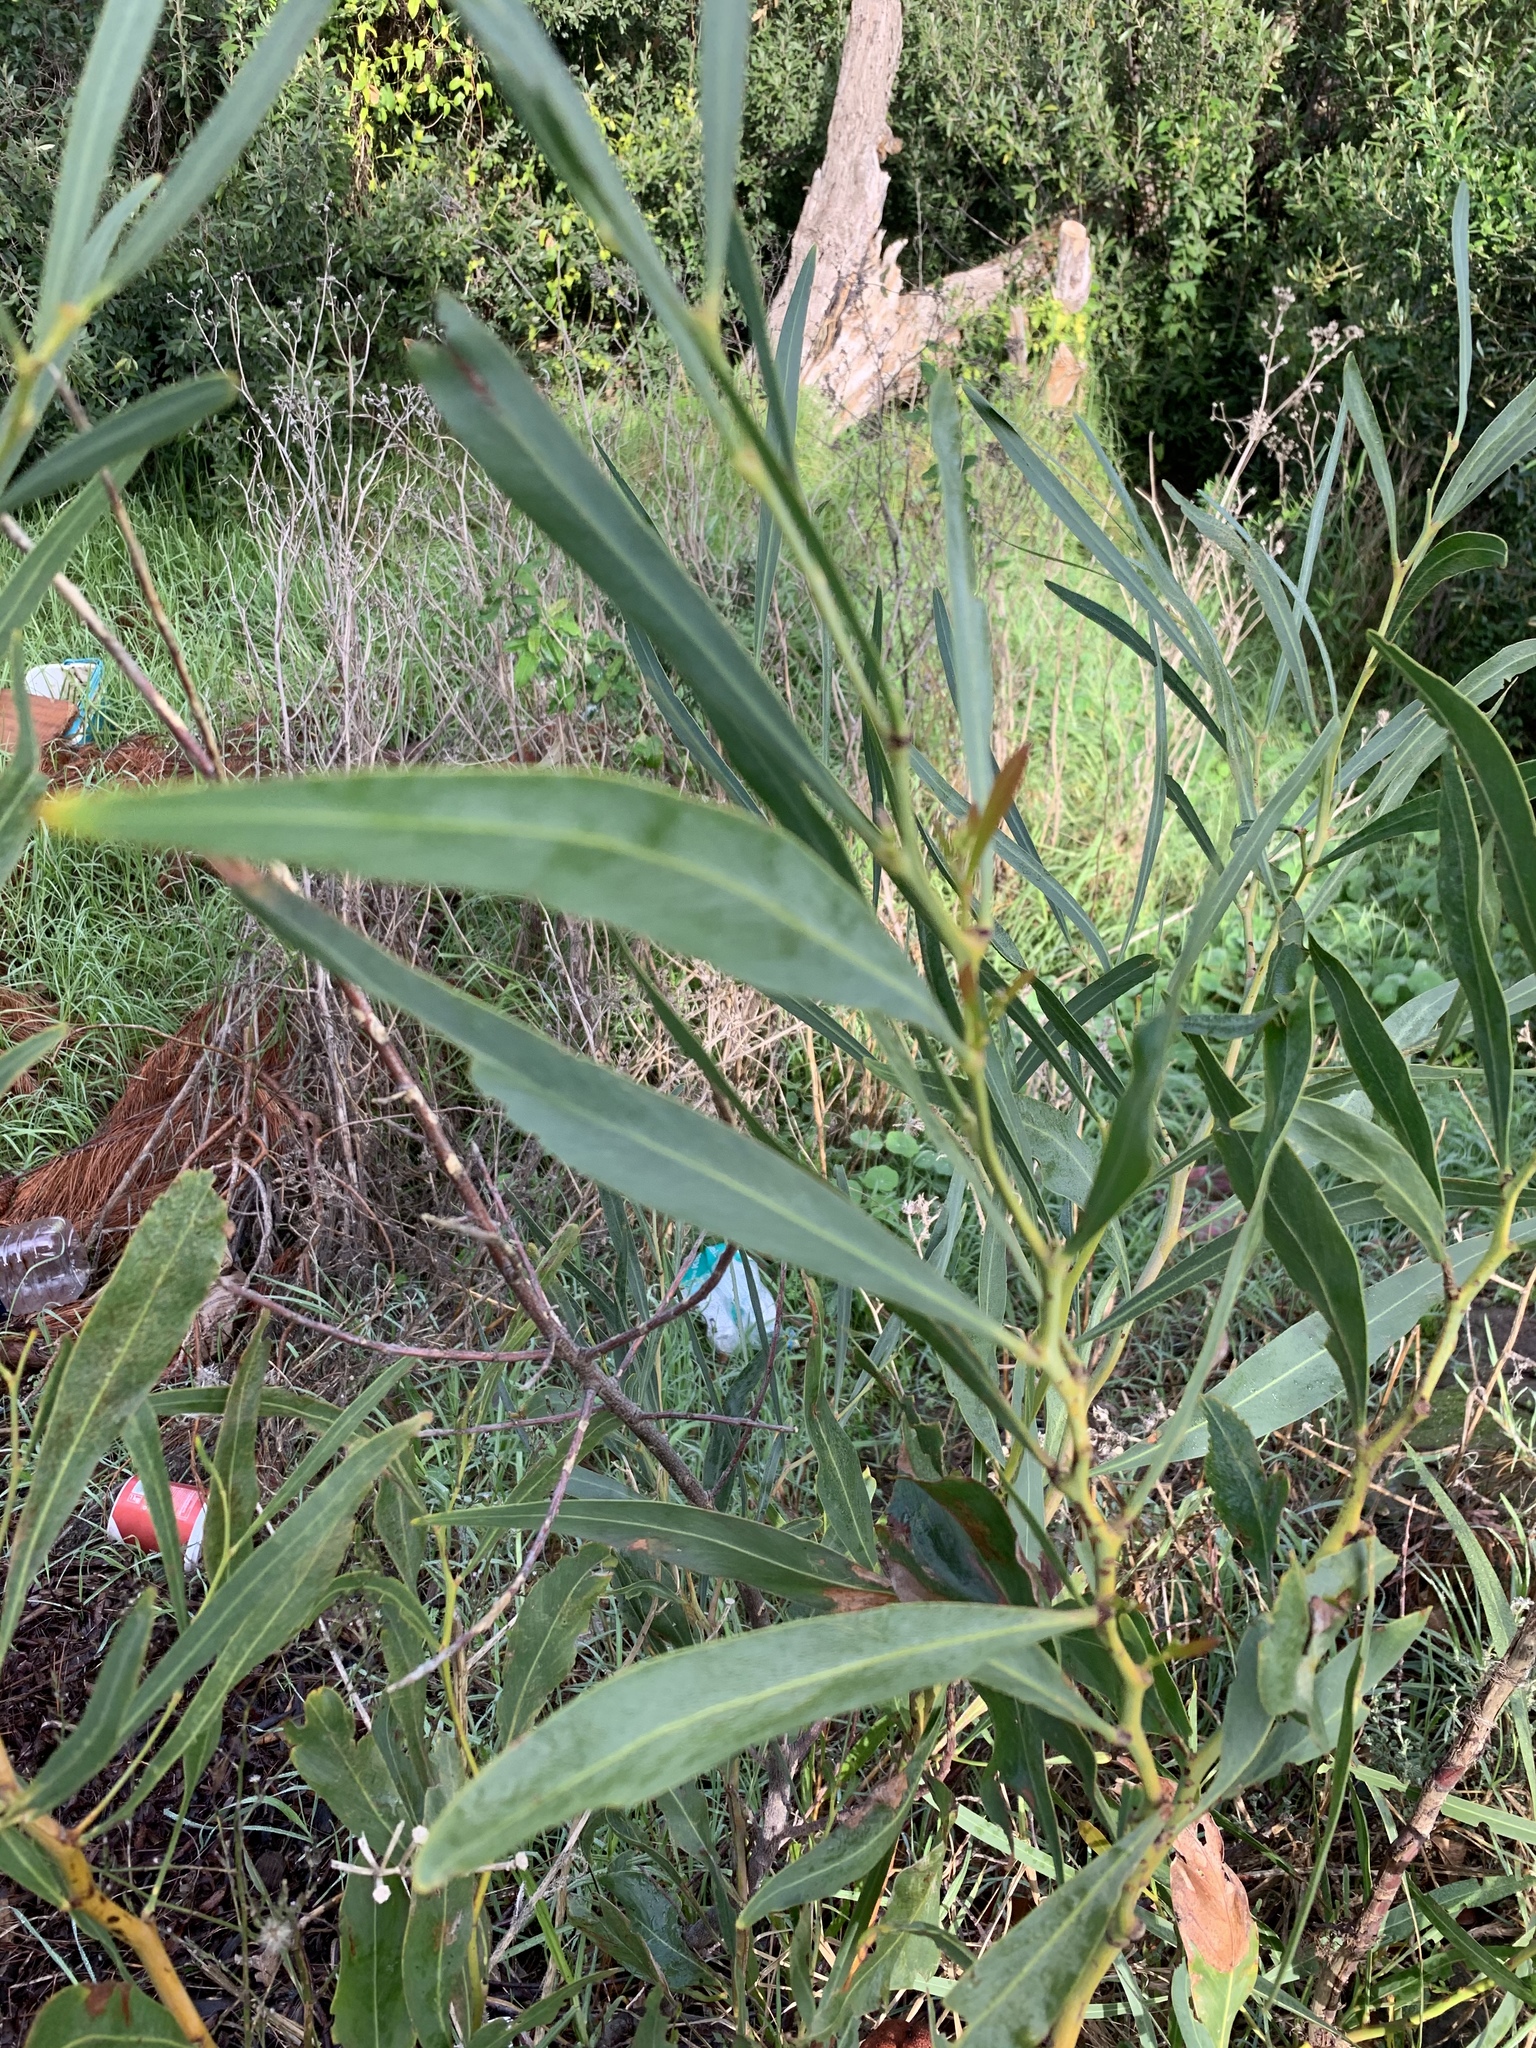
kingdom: Plantae
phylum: Tracheophyta
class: Magnoliopsida
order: Fabales
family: Fabaceae
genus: Acacia
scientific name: Acacia saligna
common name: Orange wattle
